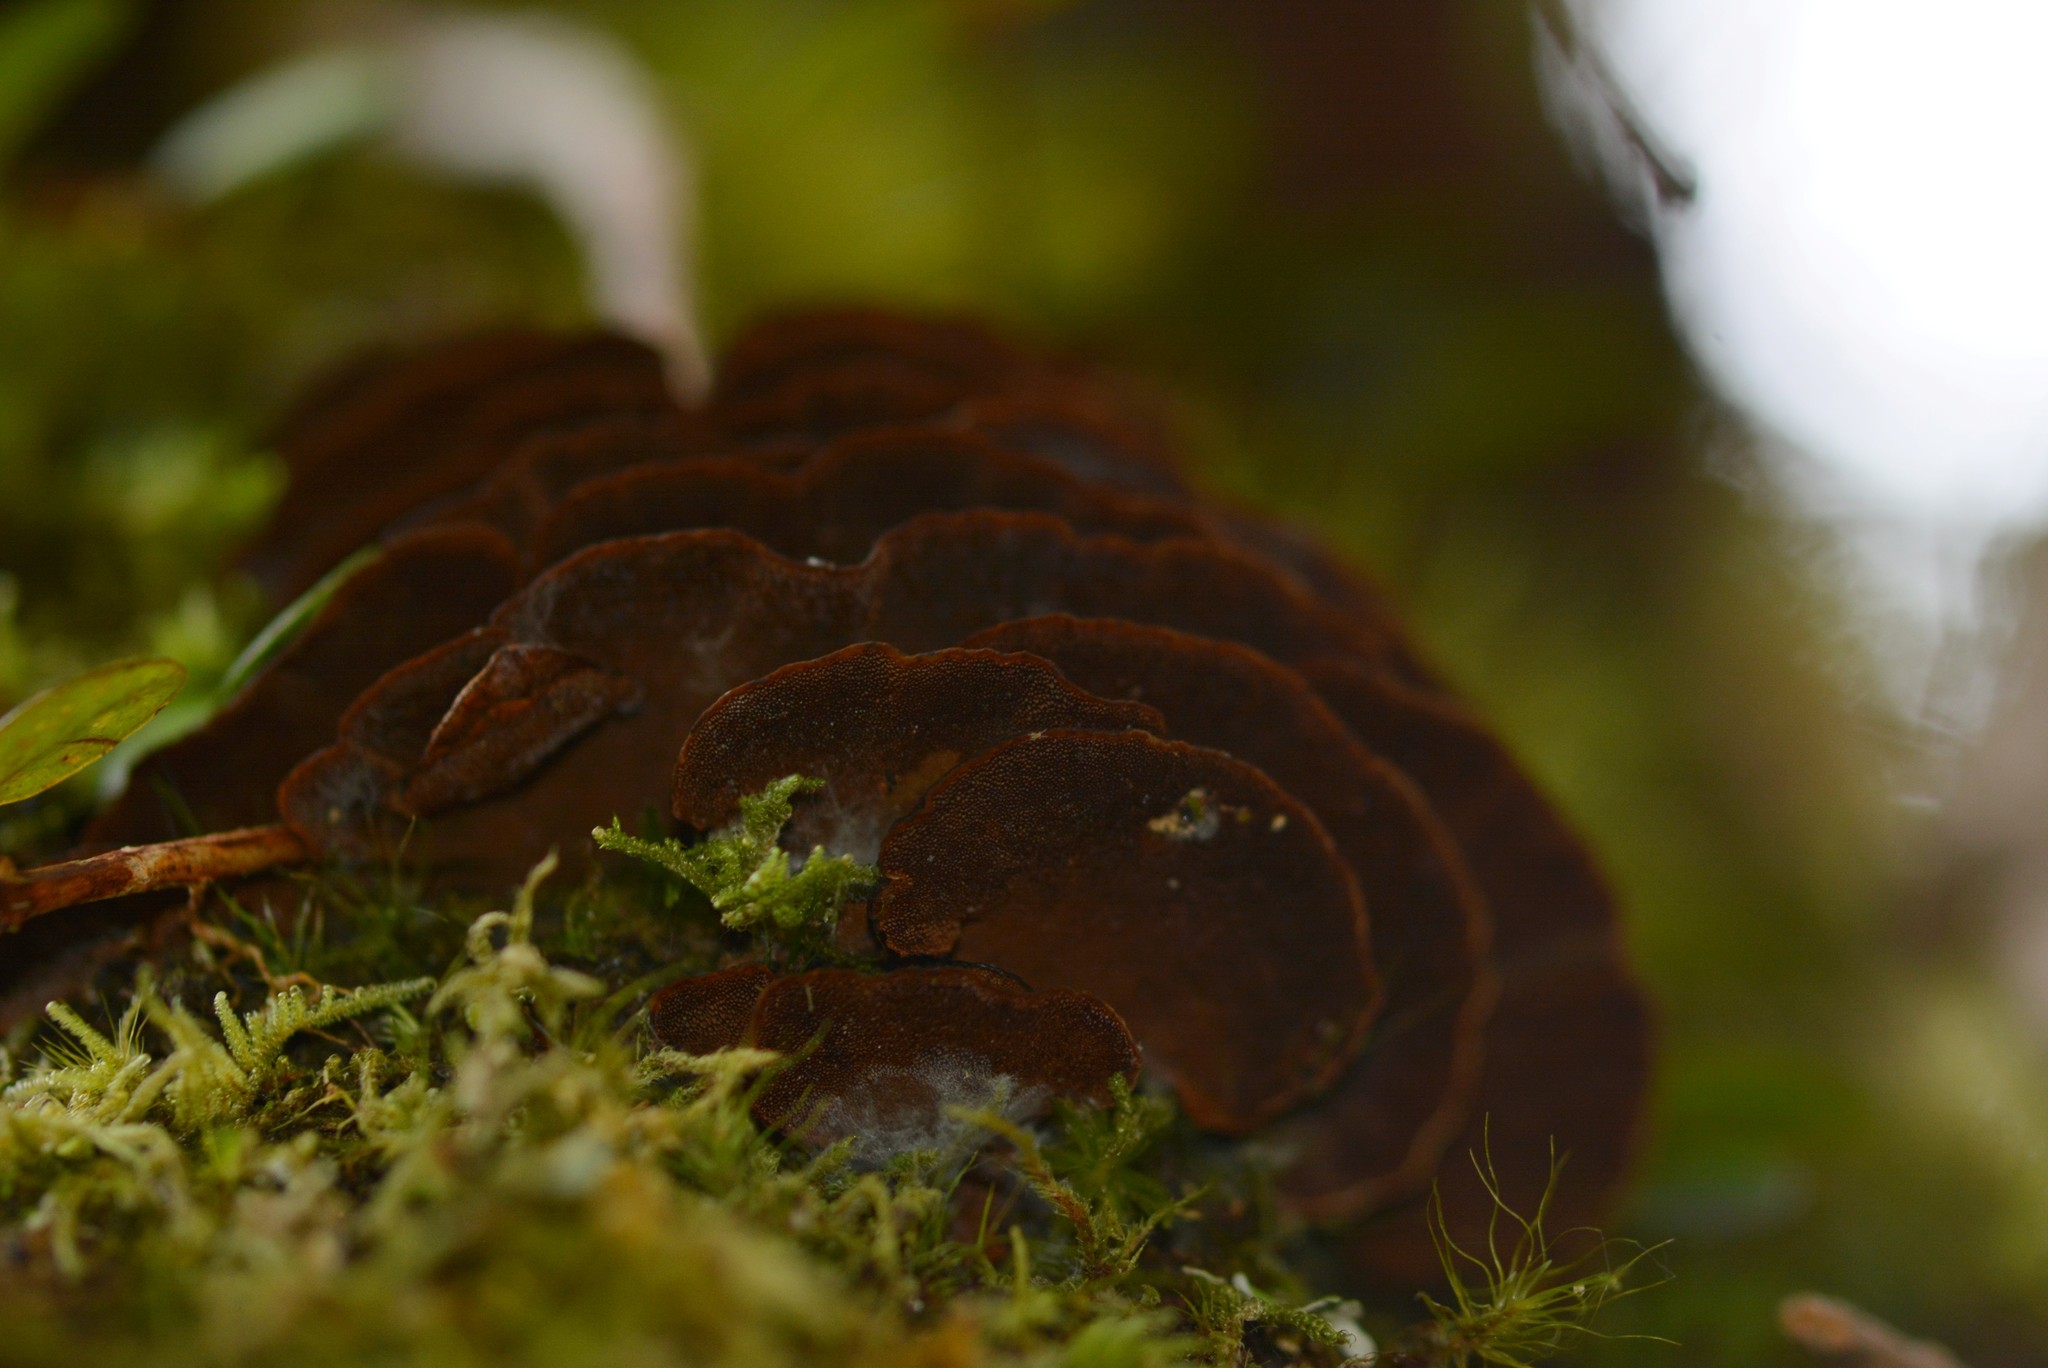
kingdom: Fungi
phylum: Basidiomycota
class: Agaricomycetes
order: Hymenochaetales
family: Hymenochaetaceae
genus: Hymenochaete
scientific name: Hymenochaete microcycla
